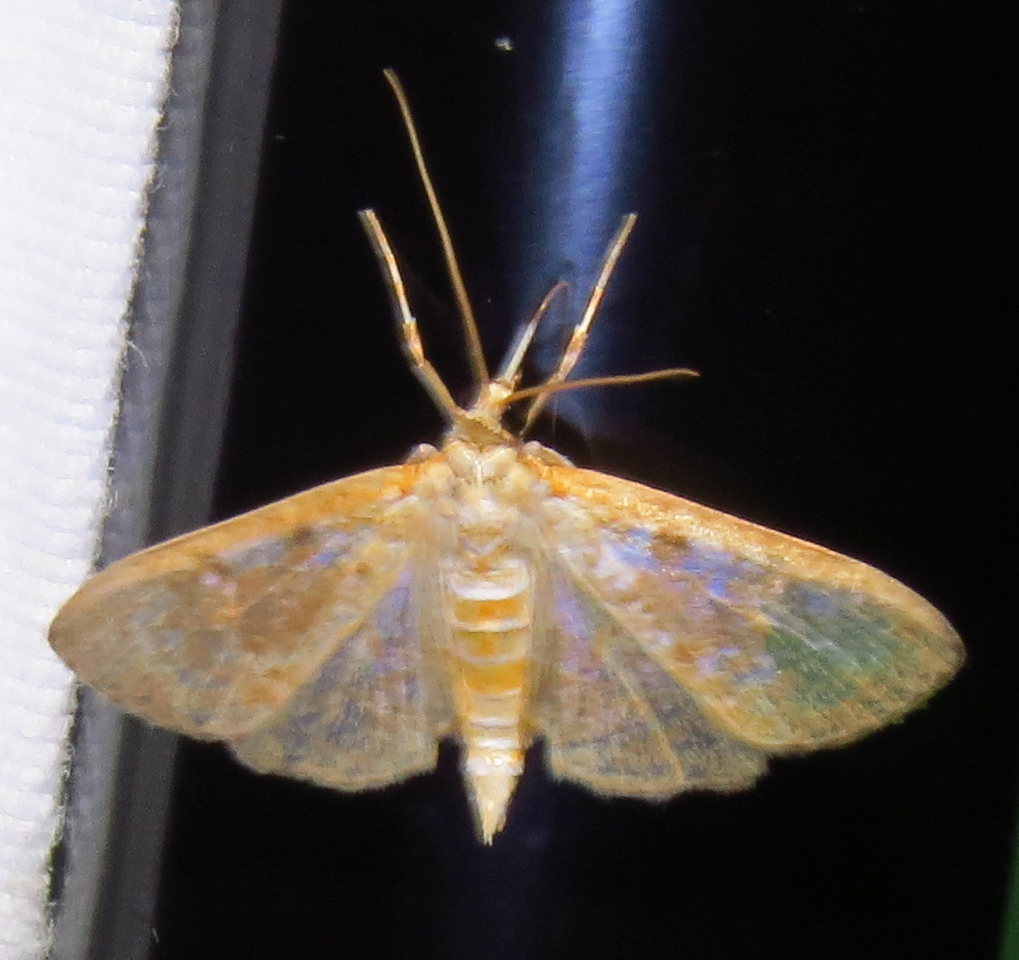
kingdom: Animalia
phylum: Arthropoda
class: Insecta
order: Lepidoptera
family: Crambidae
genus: Palpita
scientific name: Palpita freemanalis
